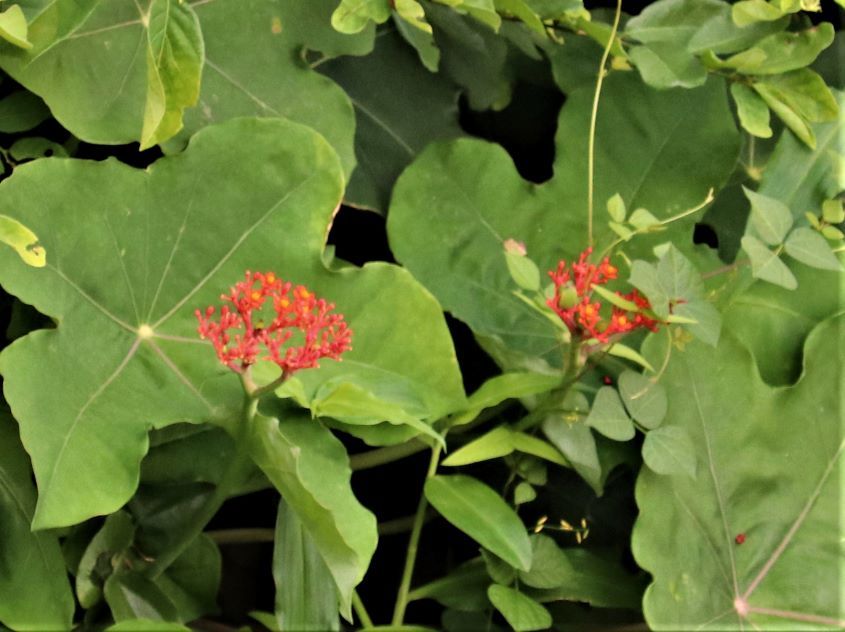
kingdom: Plantae
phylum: Tracheophyta
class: Magnoliopsida
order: Malpighiales
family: Euphorbiaceae
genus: Jatropha
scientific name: Jatropha podagrica
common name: Gout stalk
